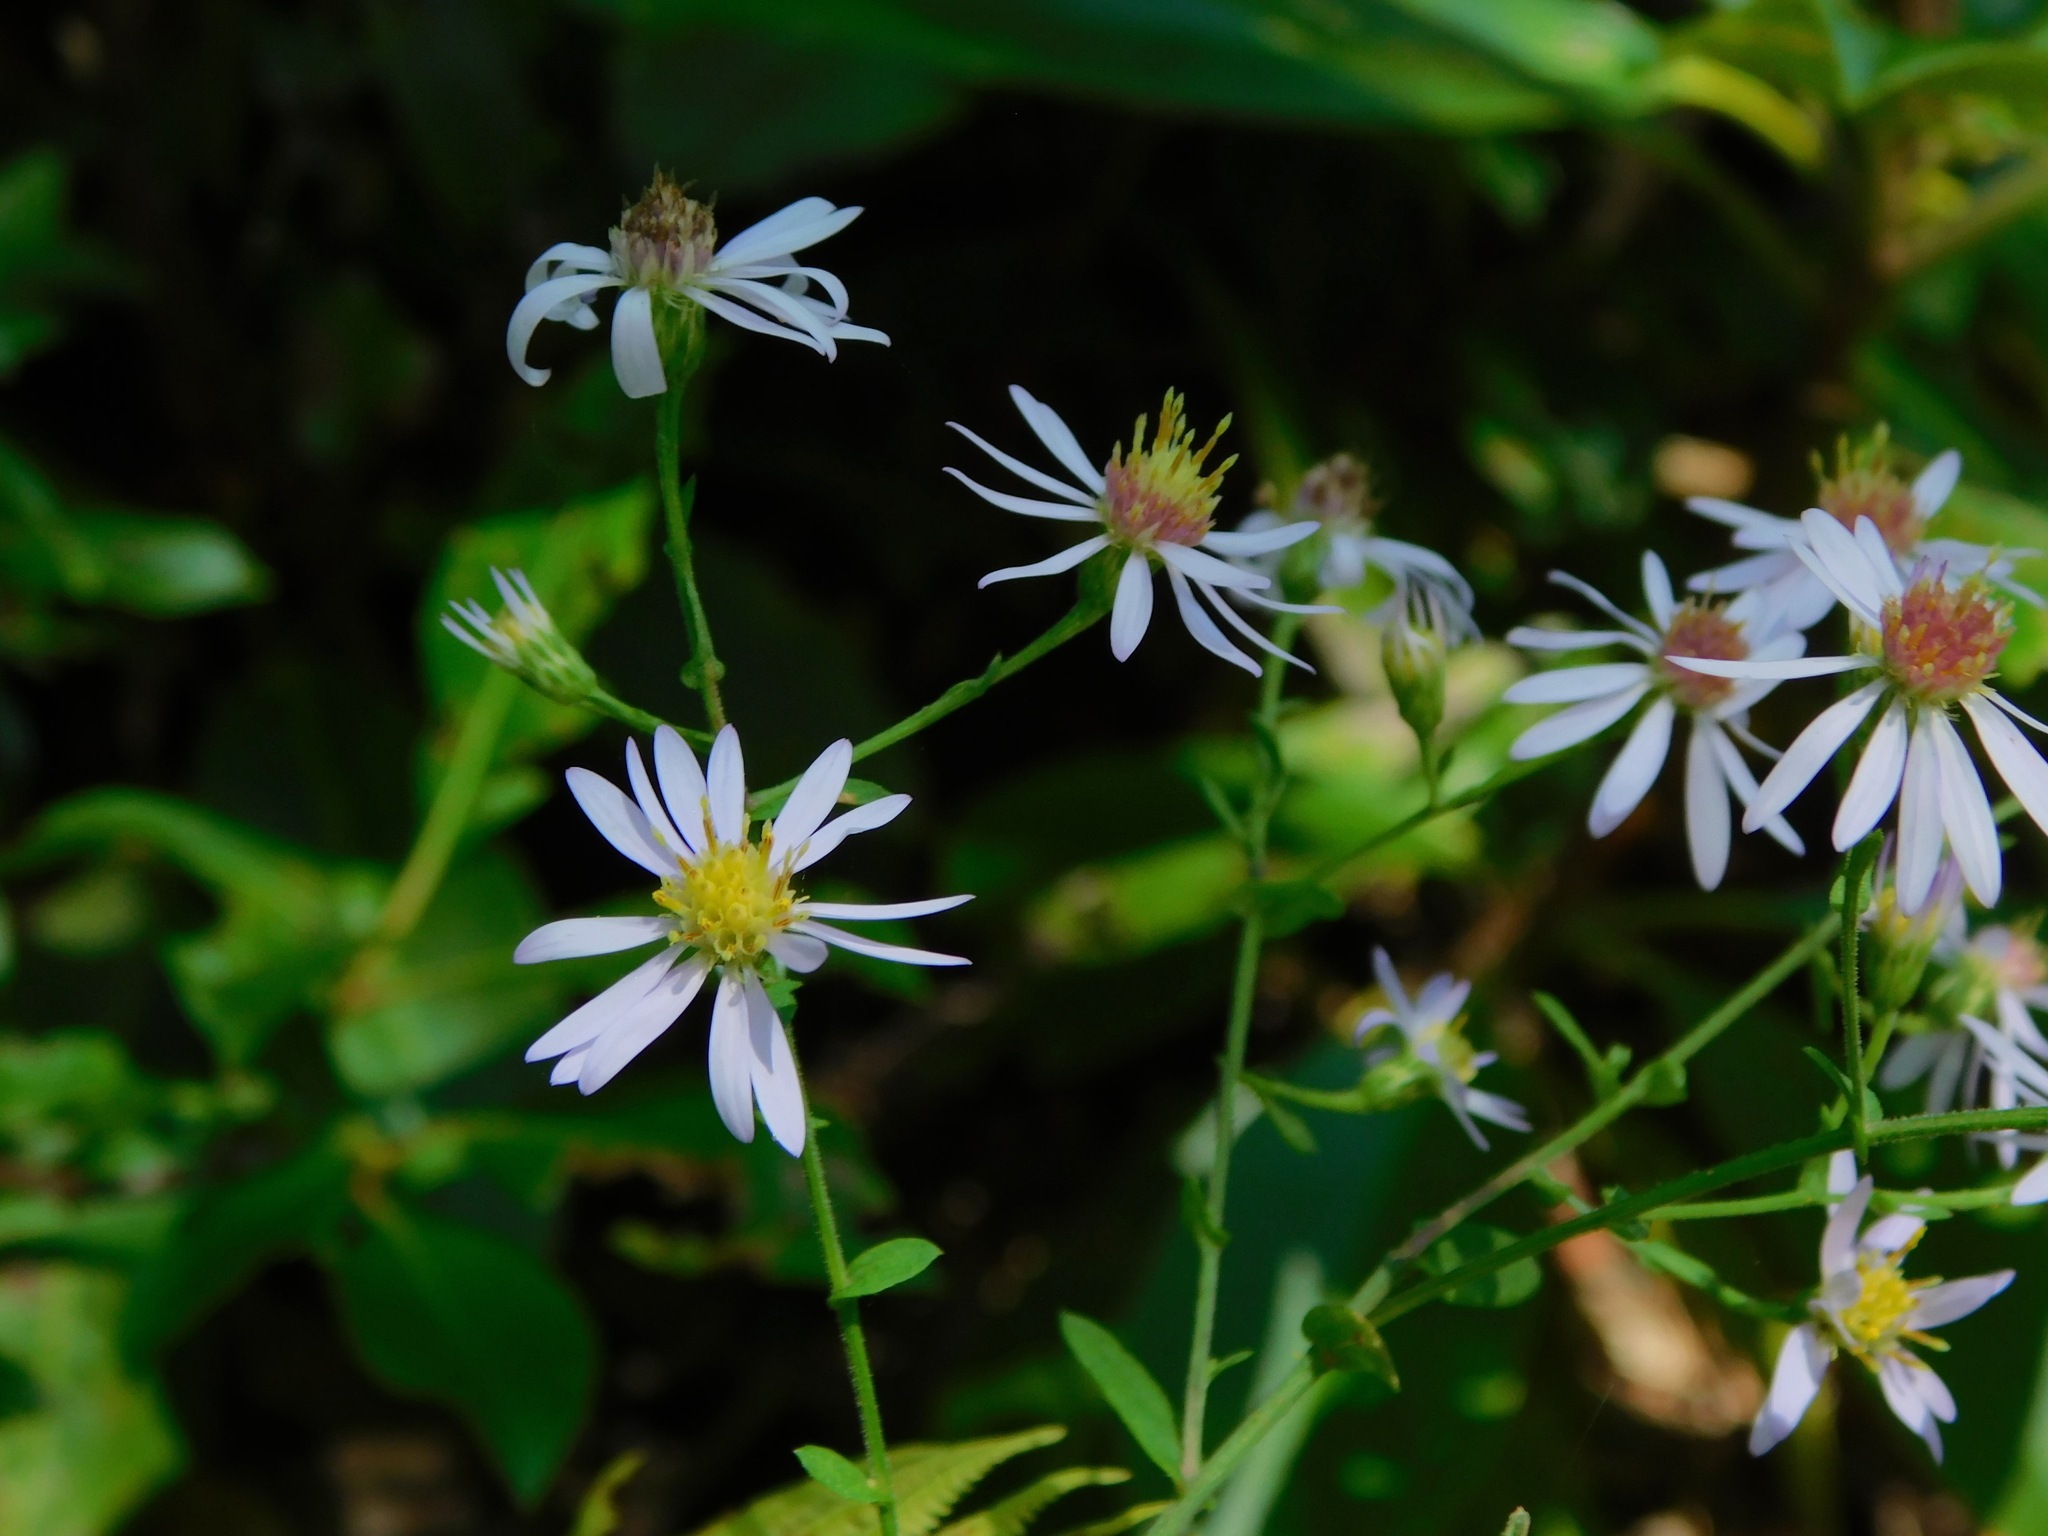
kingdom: Plantae
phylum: Tracheophyta
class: Magnoliopsida
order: Asterales
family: Asteraceae
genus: Symphyotrichum
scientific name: Symphyotrichum undulatum
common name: Clasping heart-leaf aster
